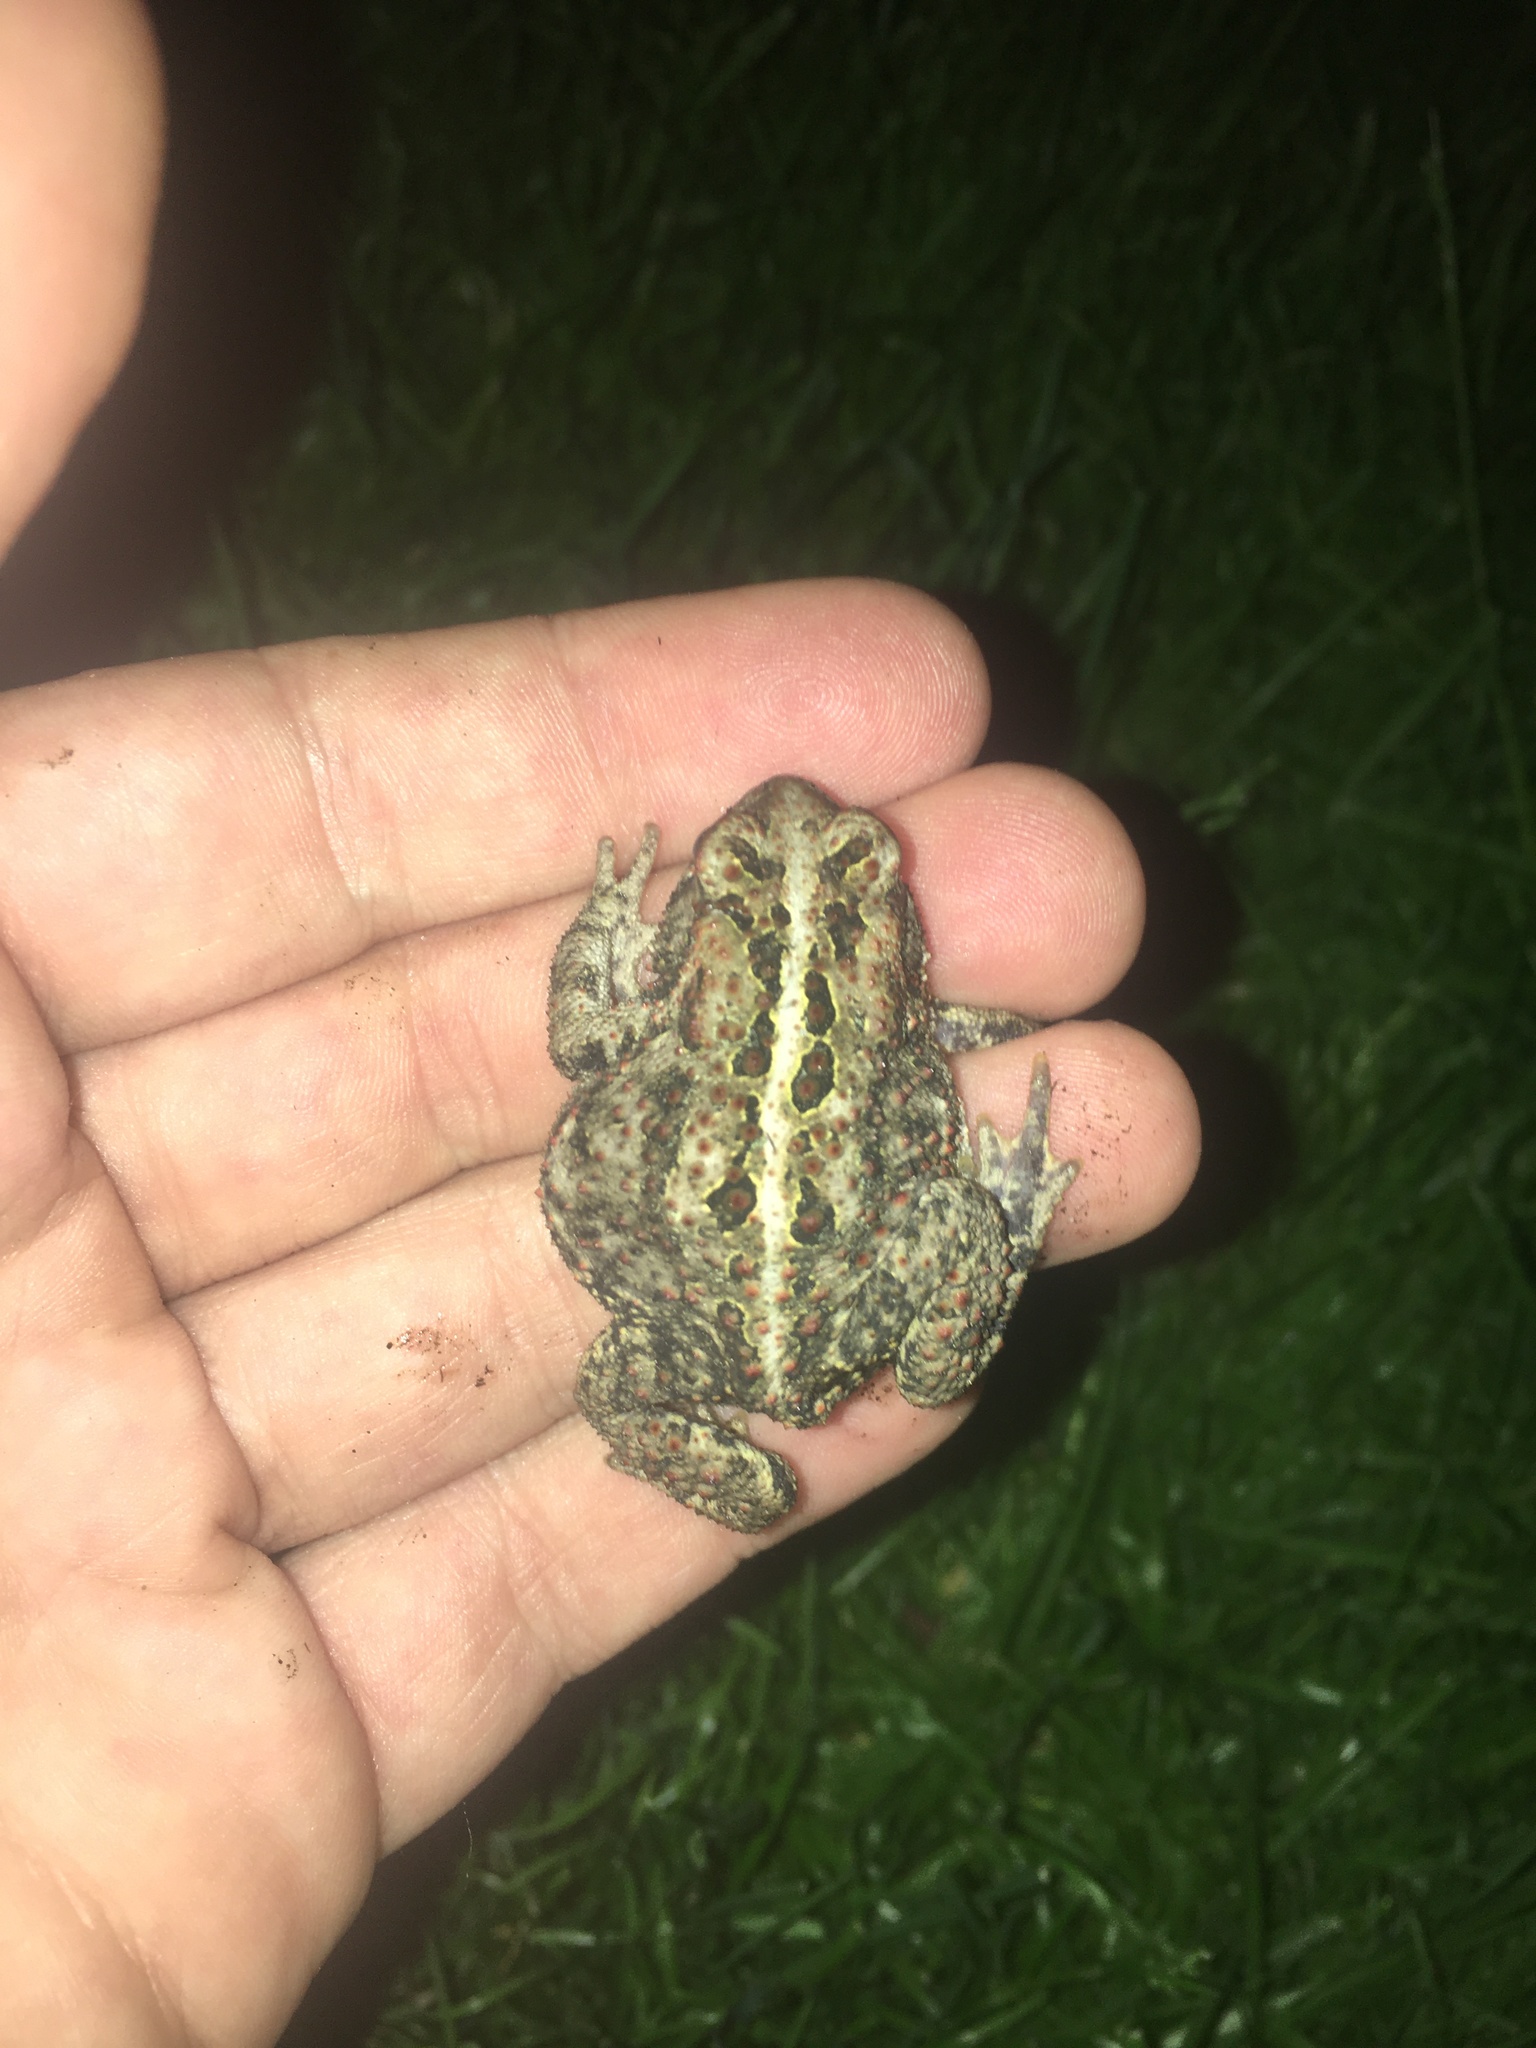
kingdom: Animalia
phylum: Chordata
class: Amphibia
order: Anura
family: Bufonidae
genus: Anaxyrus
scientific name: Anaxyrus americanus
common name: American toad
